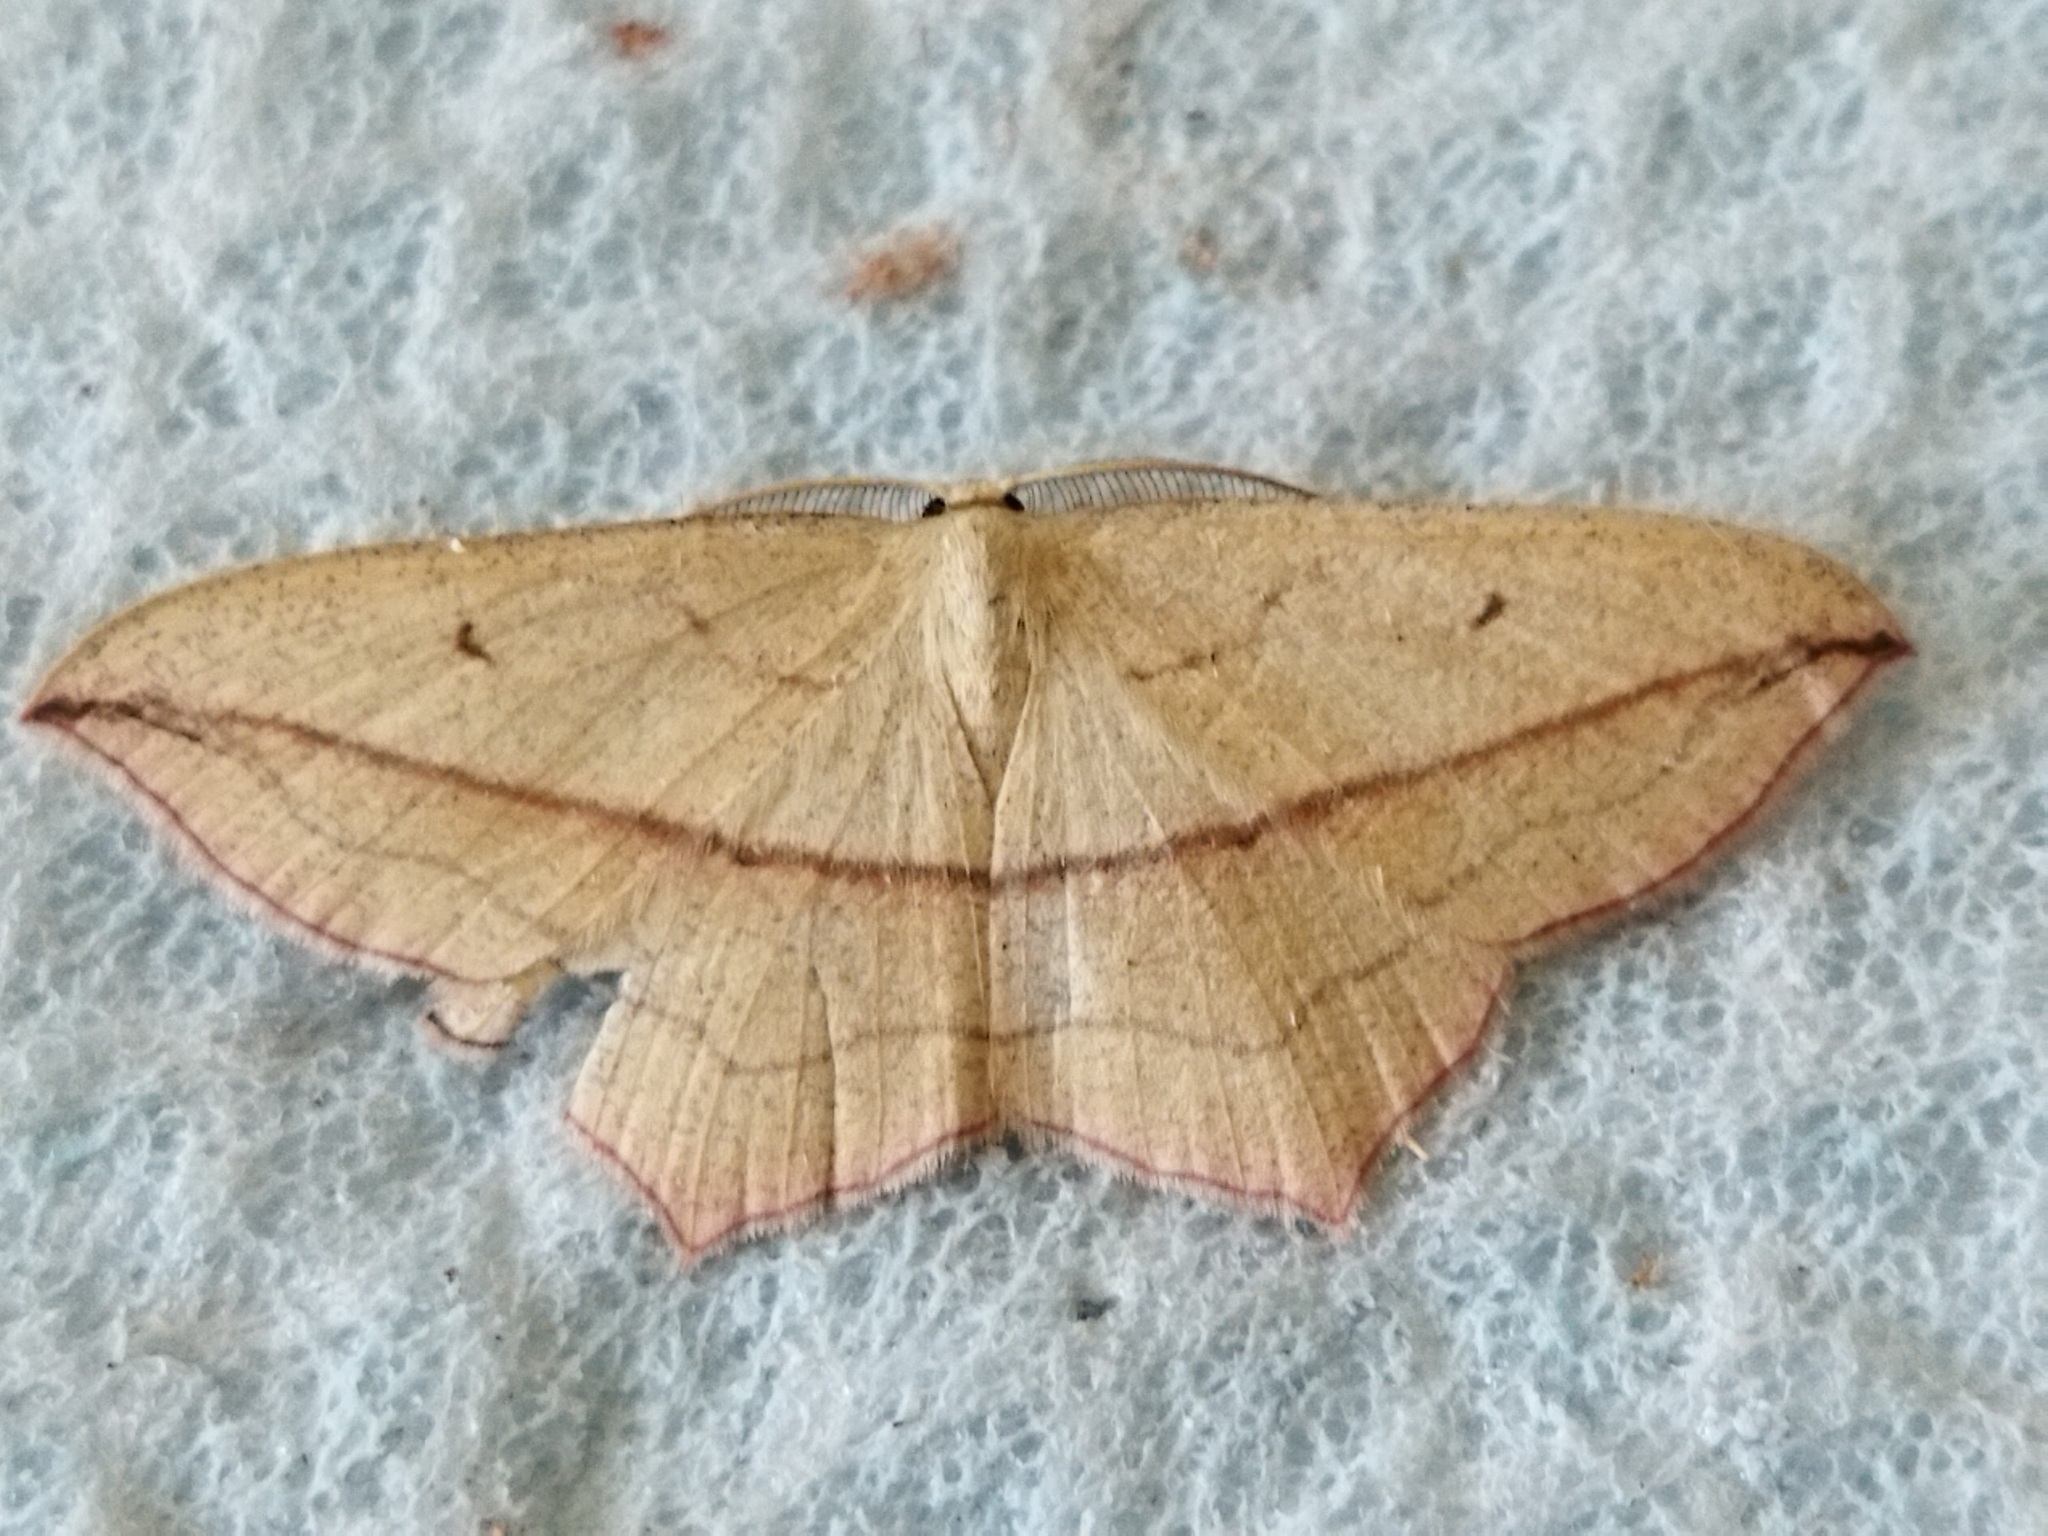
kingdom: Animalia
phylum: Arthropoda
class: Insecta
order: Lepidoptera
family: Geometridae
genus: Timandra
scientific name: Timandra comae
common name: Blood-vein
